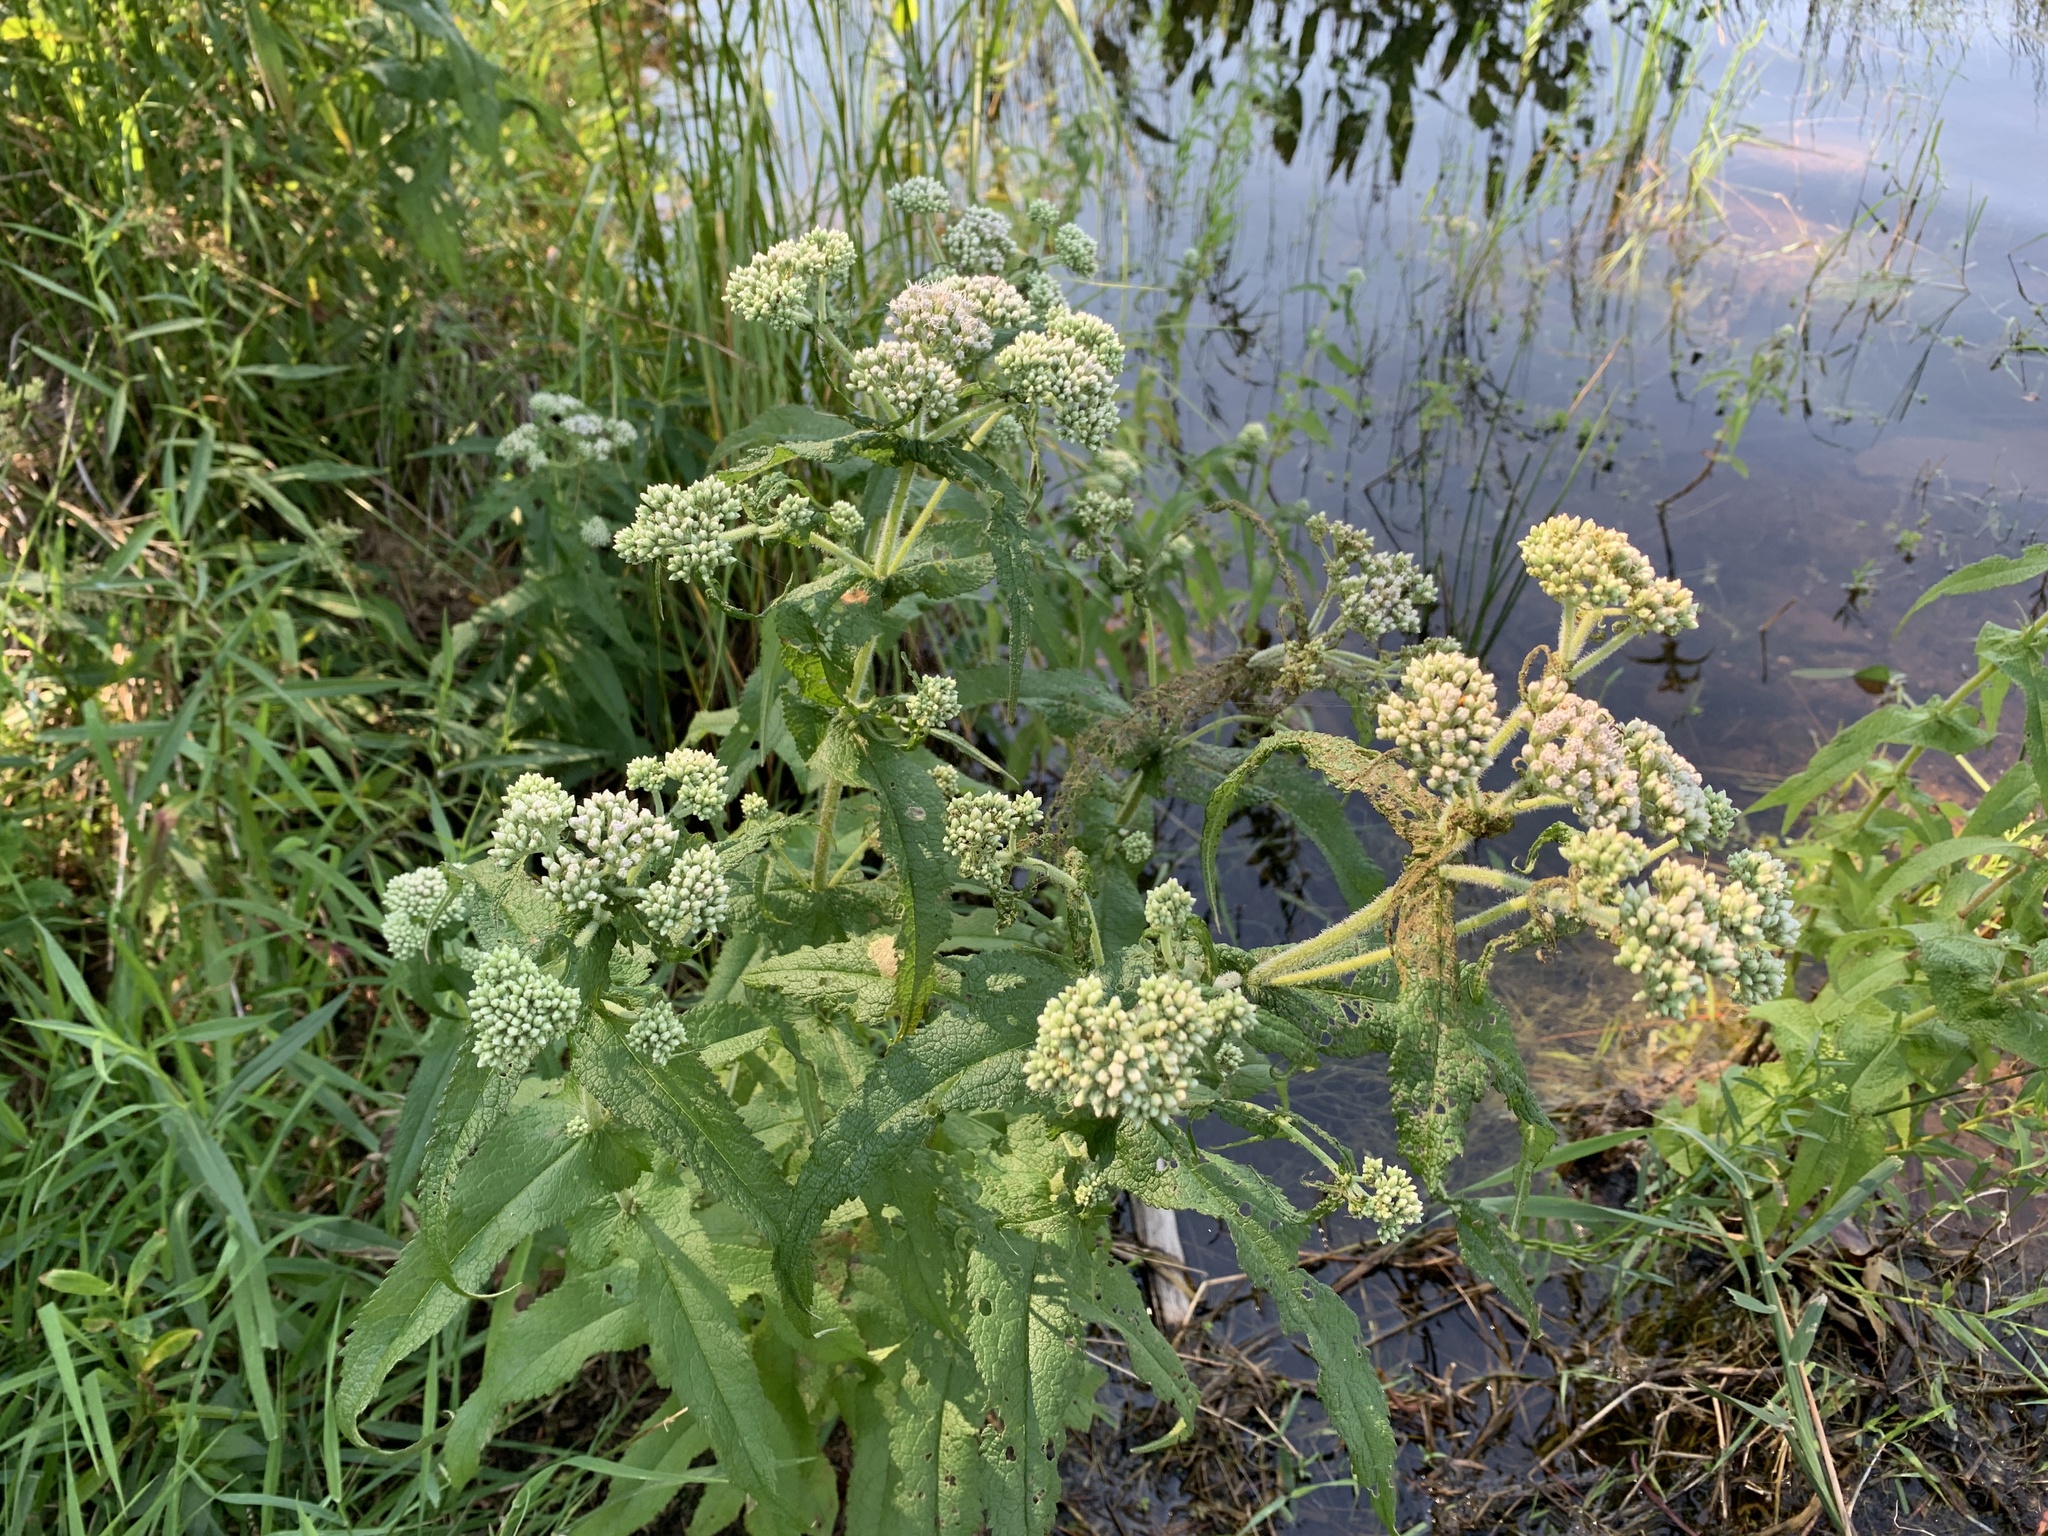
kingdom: Plantae
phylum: Tracheophyta
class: Magnoliopsida
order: Asterales
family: Asteraceae
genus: Eupatorium
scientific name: Eupatorium perfoliatum
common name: Boneset
